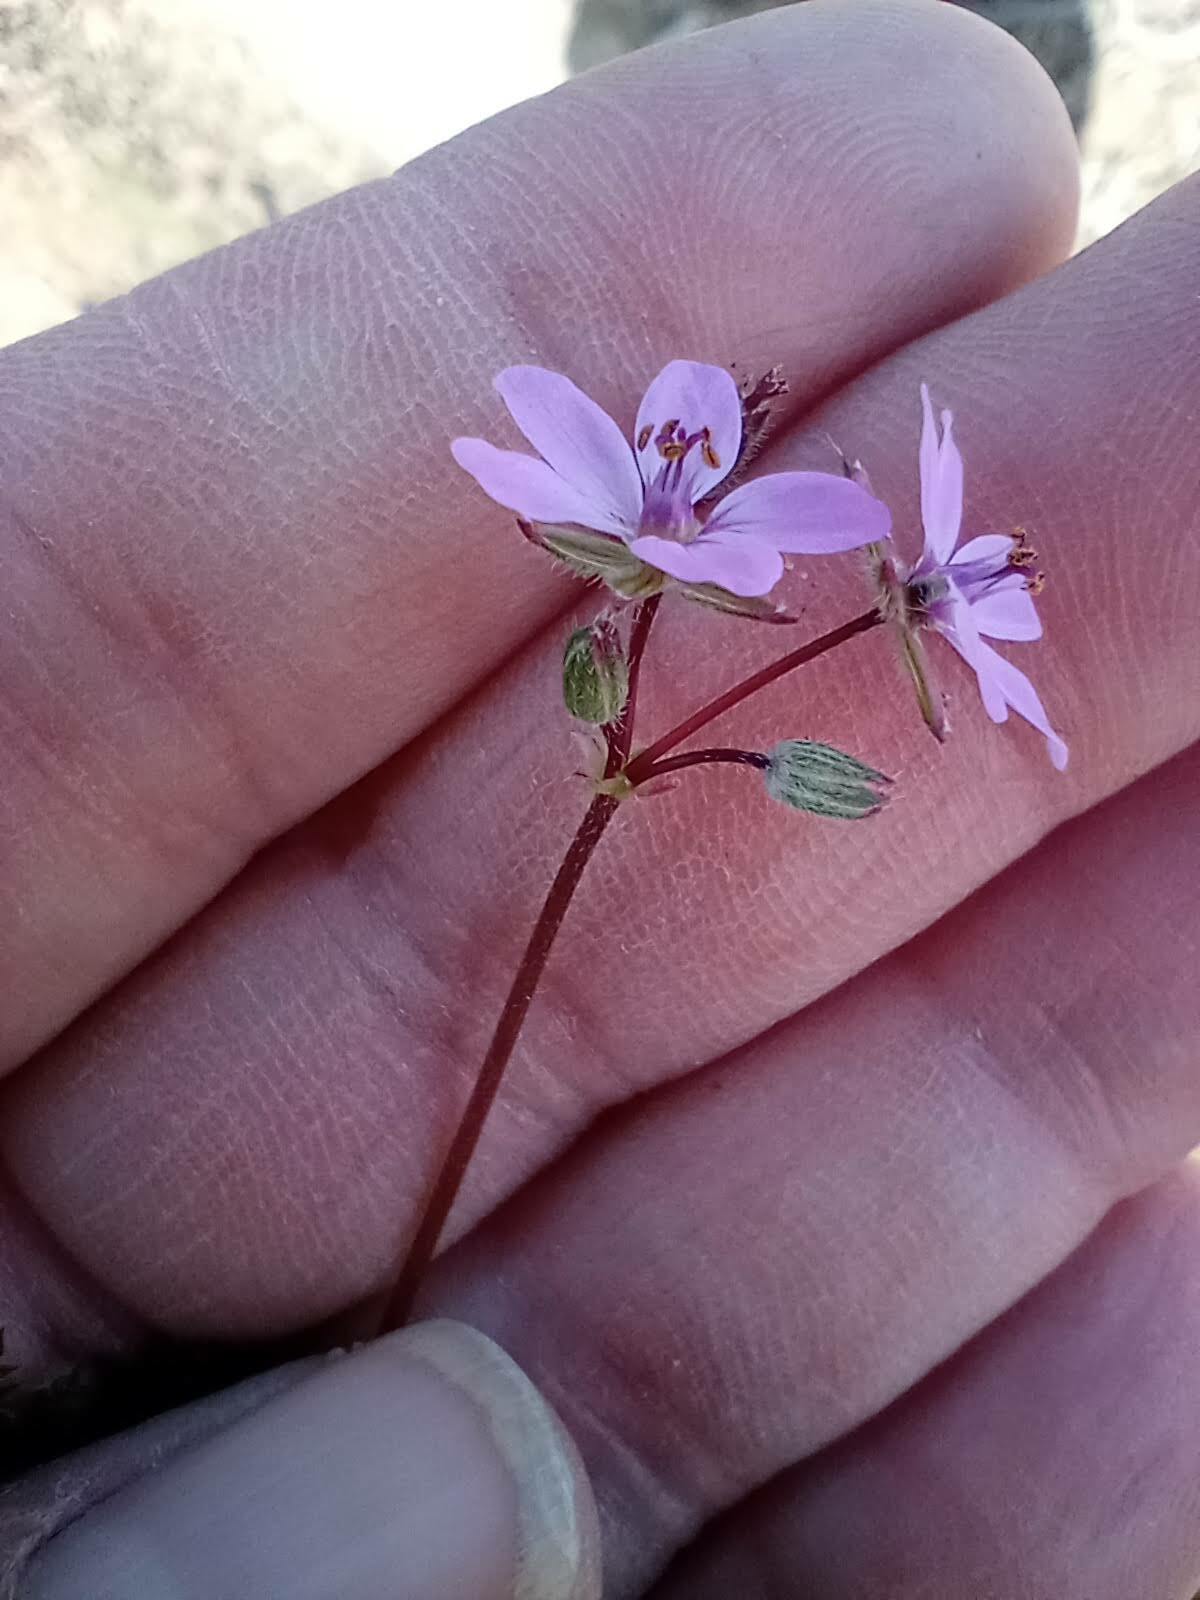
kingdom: Plantae
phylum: Tracheophyta
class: Magnoliopsida
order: Geraniales
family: Geraniaceae
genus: Erodium
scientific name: Erodium cicutarium
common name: Common stork's-bill
